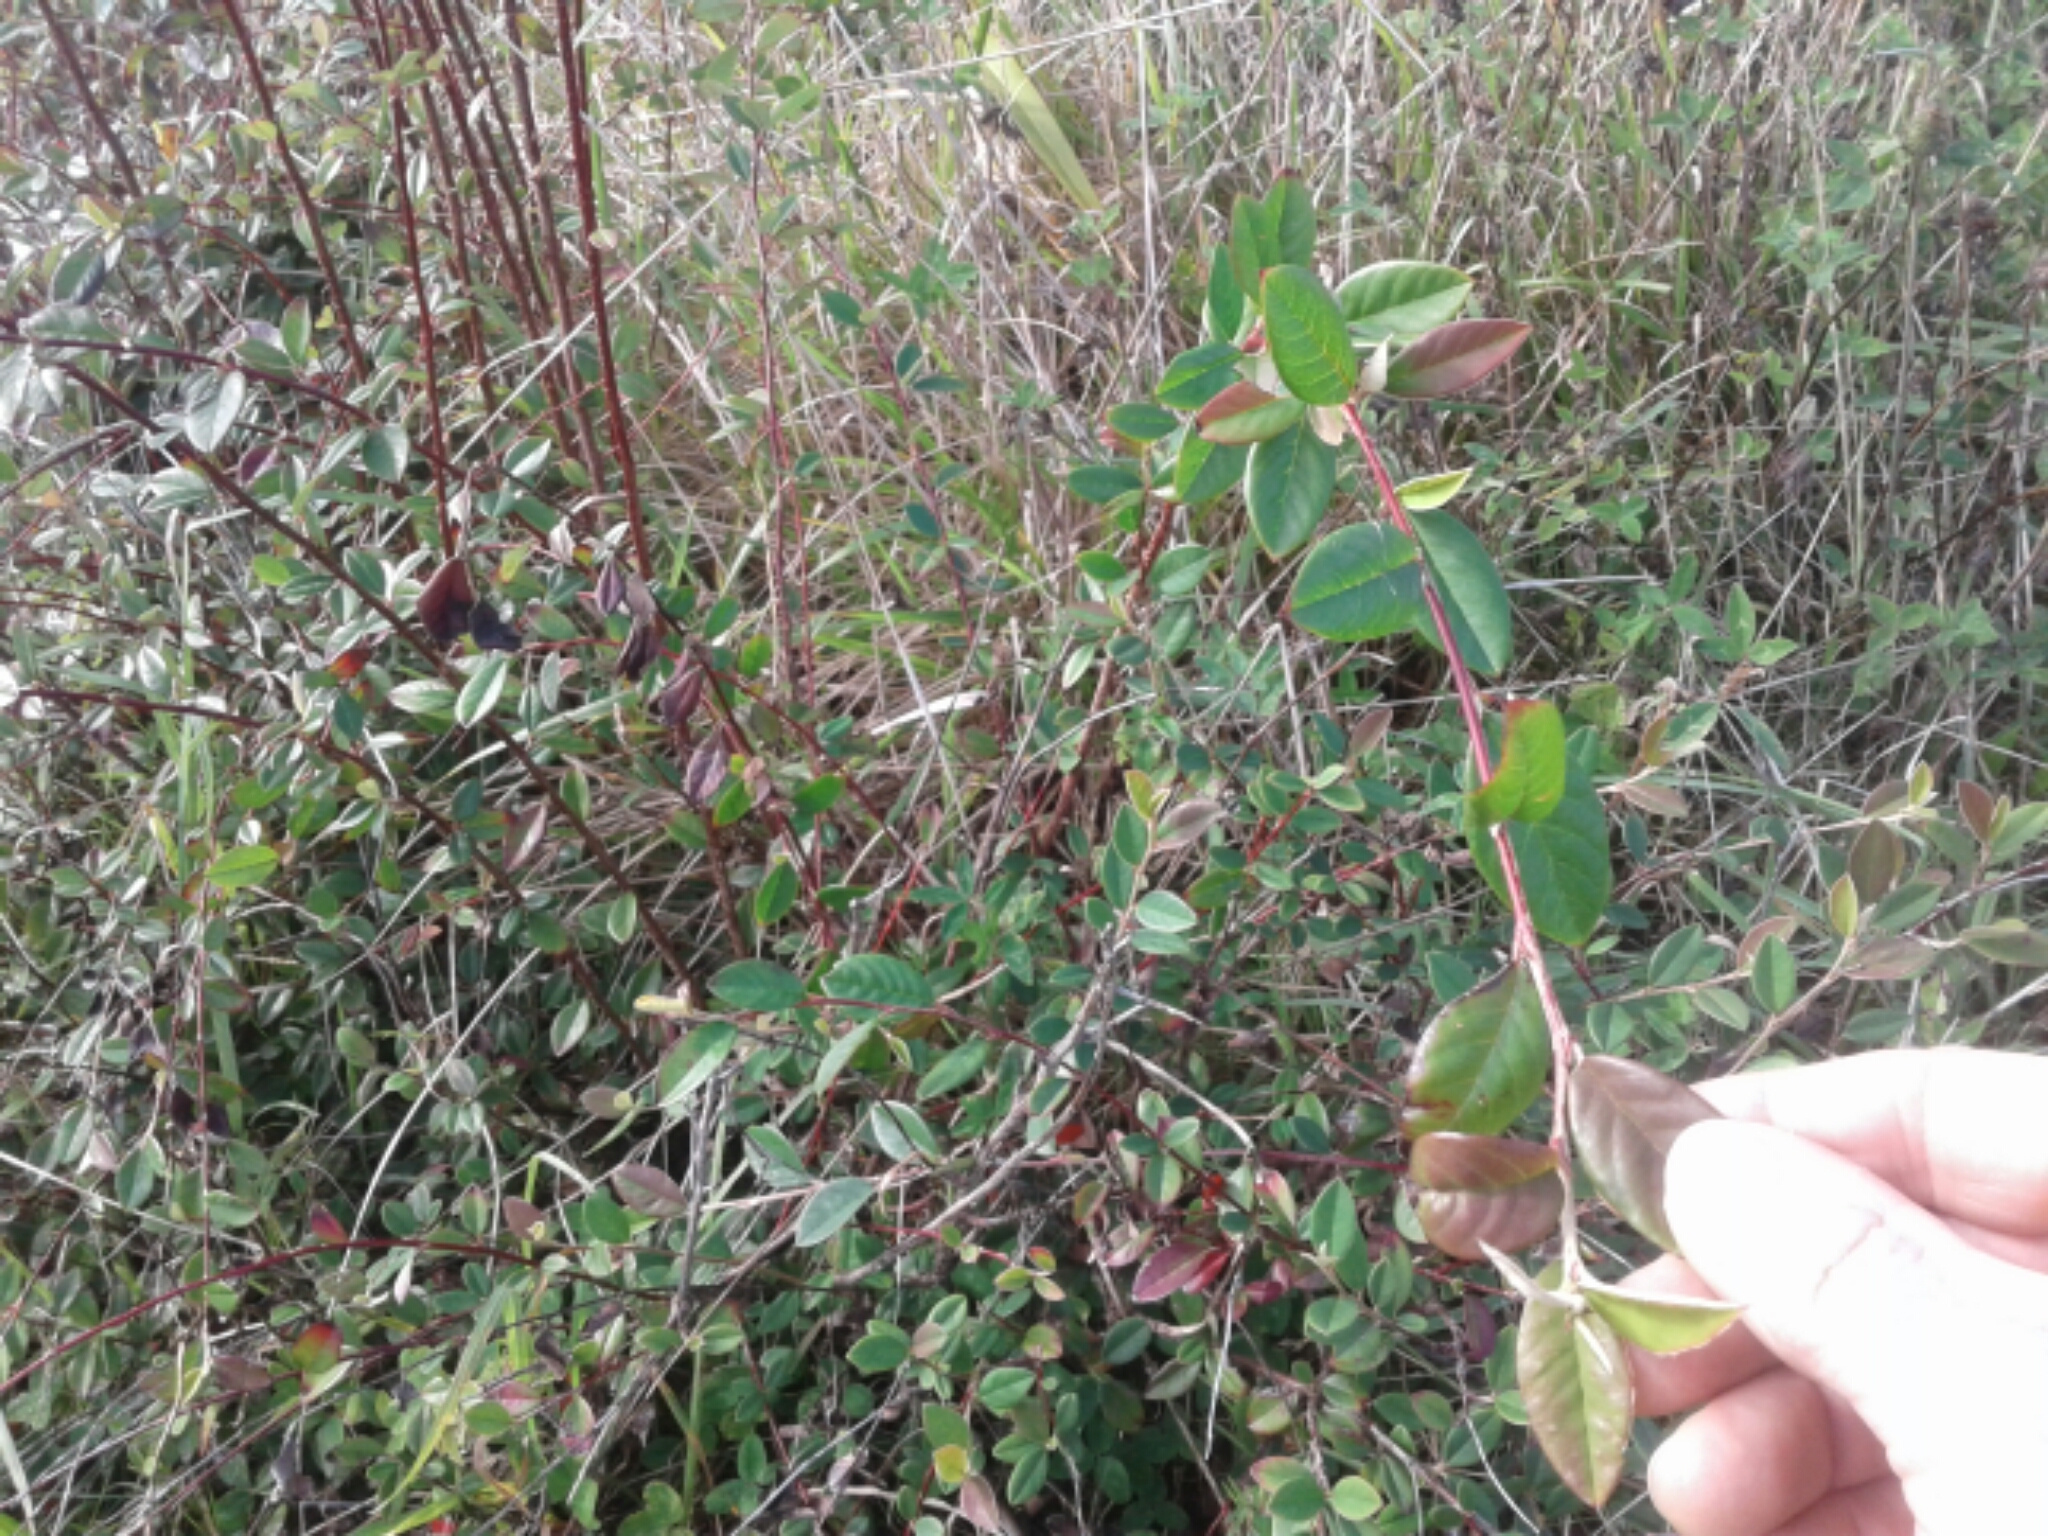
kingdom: Plantae
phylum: Tracheophyta
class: Magnoliopsida
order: Rosales
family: Rosaceae
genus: Cotoneaster
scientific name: Cotoneaster glaucophyllus
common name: Glaucous cotoneaster
